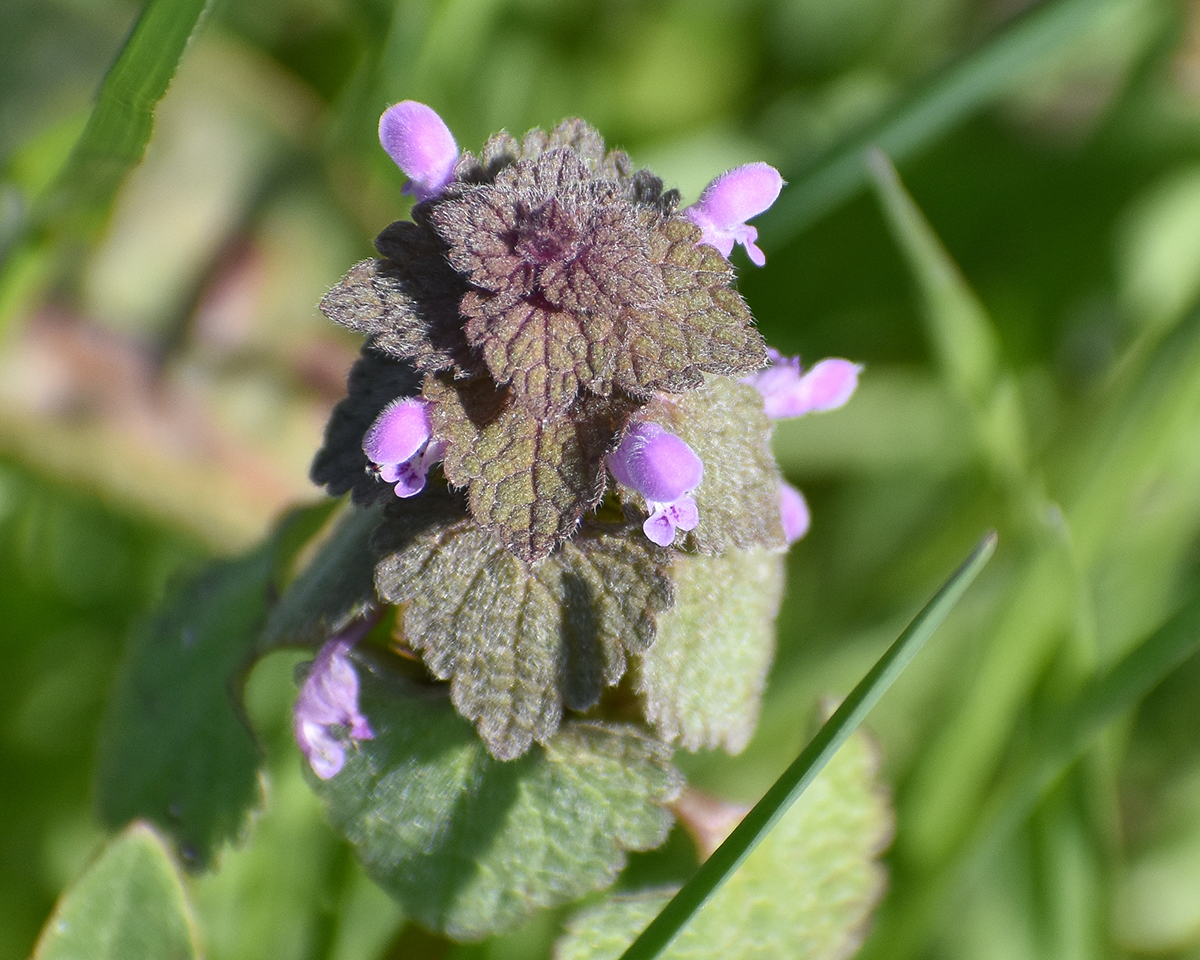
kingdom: Plantae
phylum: Tracheophyta
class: Magnoliopsida
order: Lamiales
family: Lamiaceae
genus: Lamium
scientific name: Lamium purpureum
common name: Red dead-nettle
